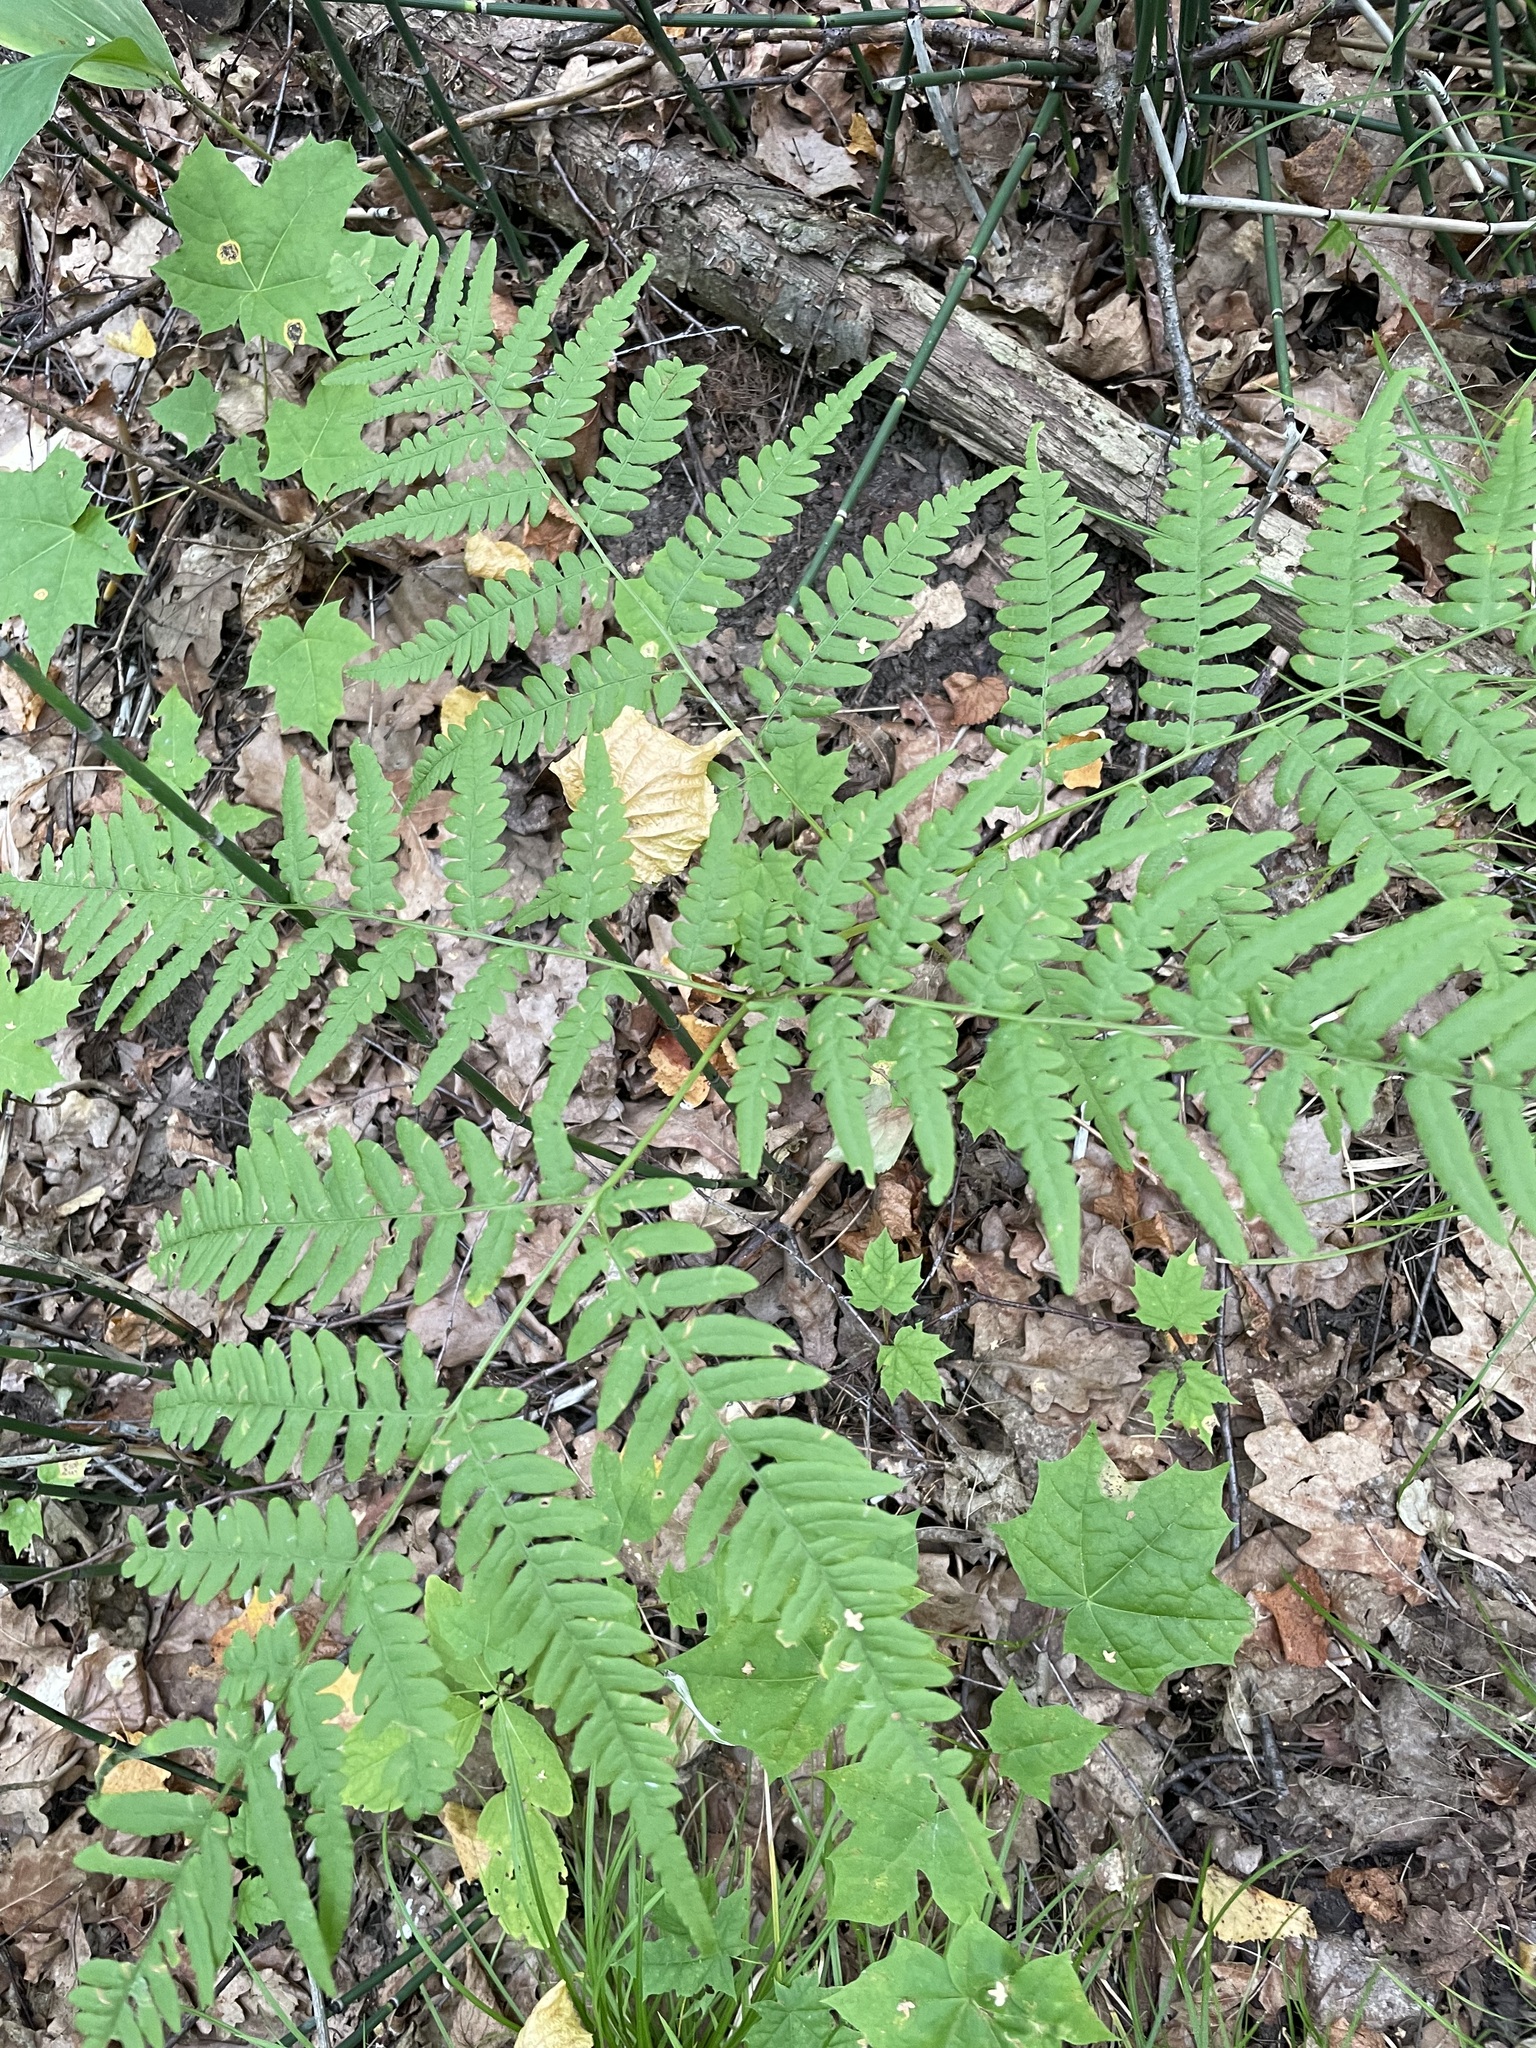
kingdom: Plantae
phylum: Tracheophyta
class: Polypodiopsida
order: Polypodiales
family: Dennstaedtiaceae
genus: Pteridium
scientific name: Pteridium aquilinum
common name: Bracken
